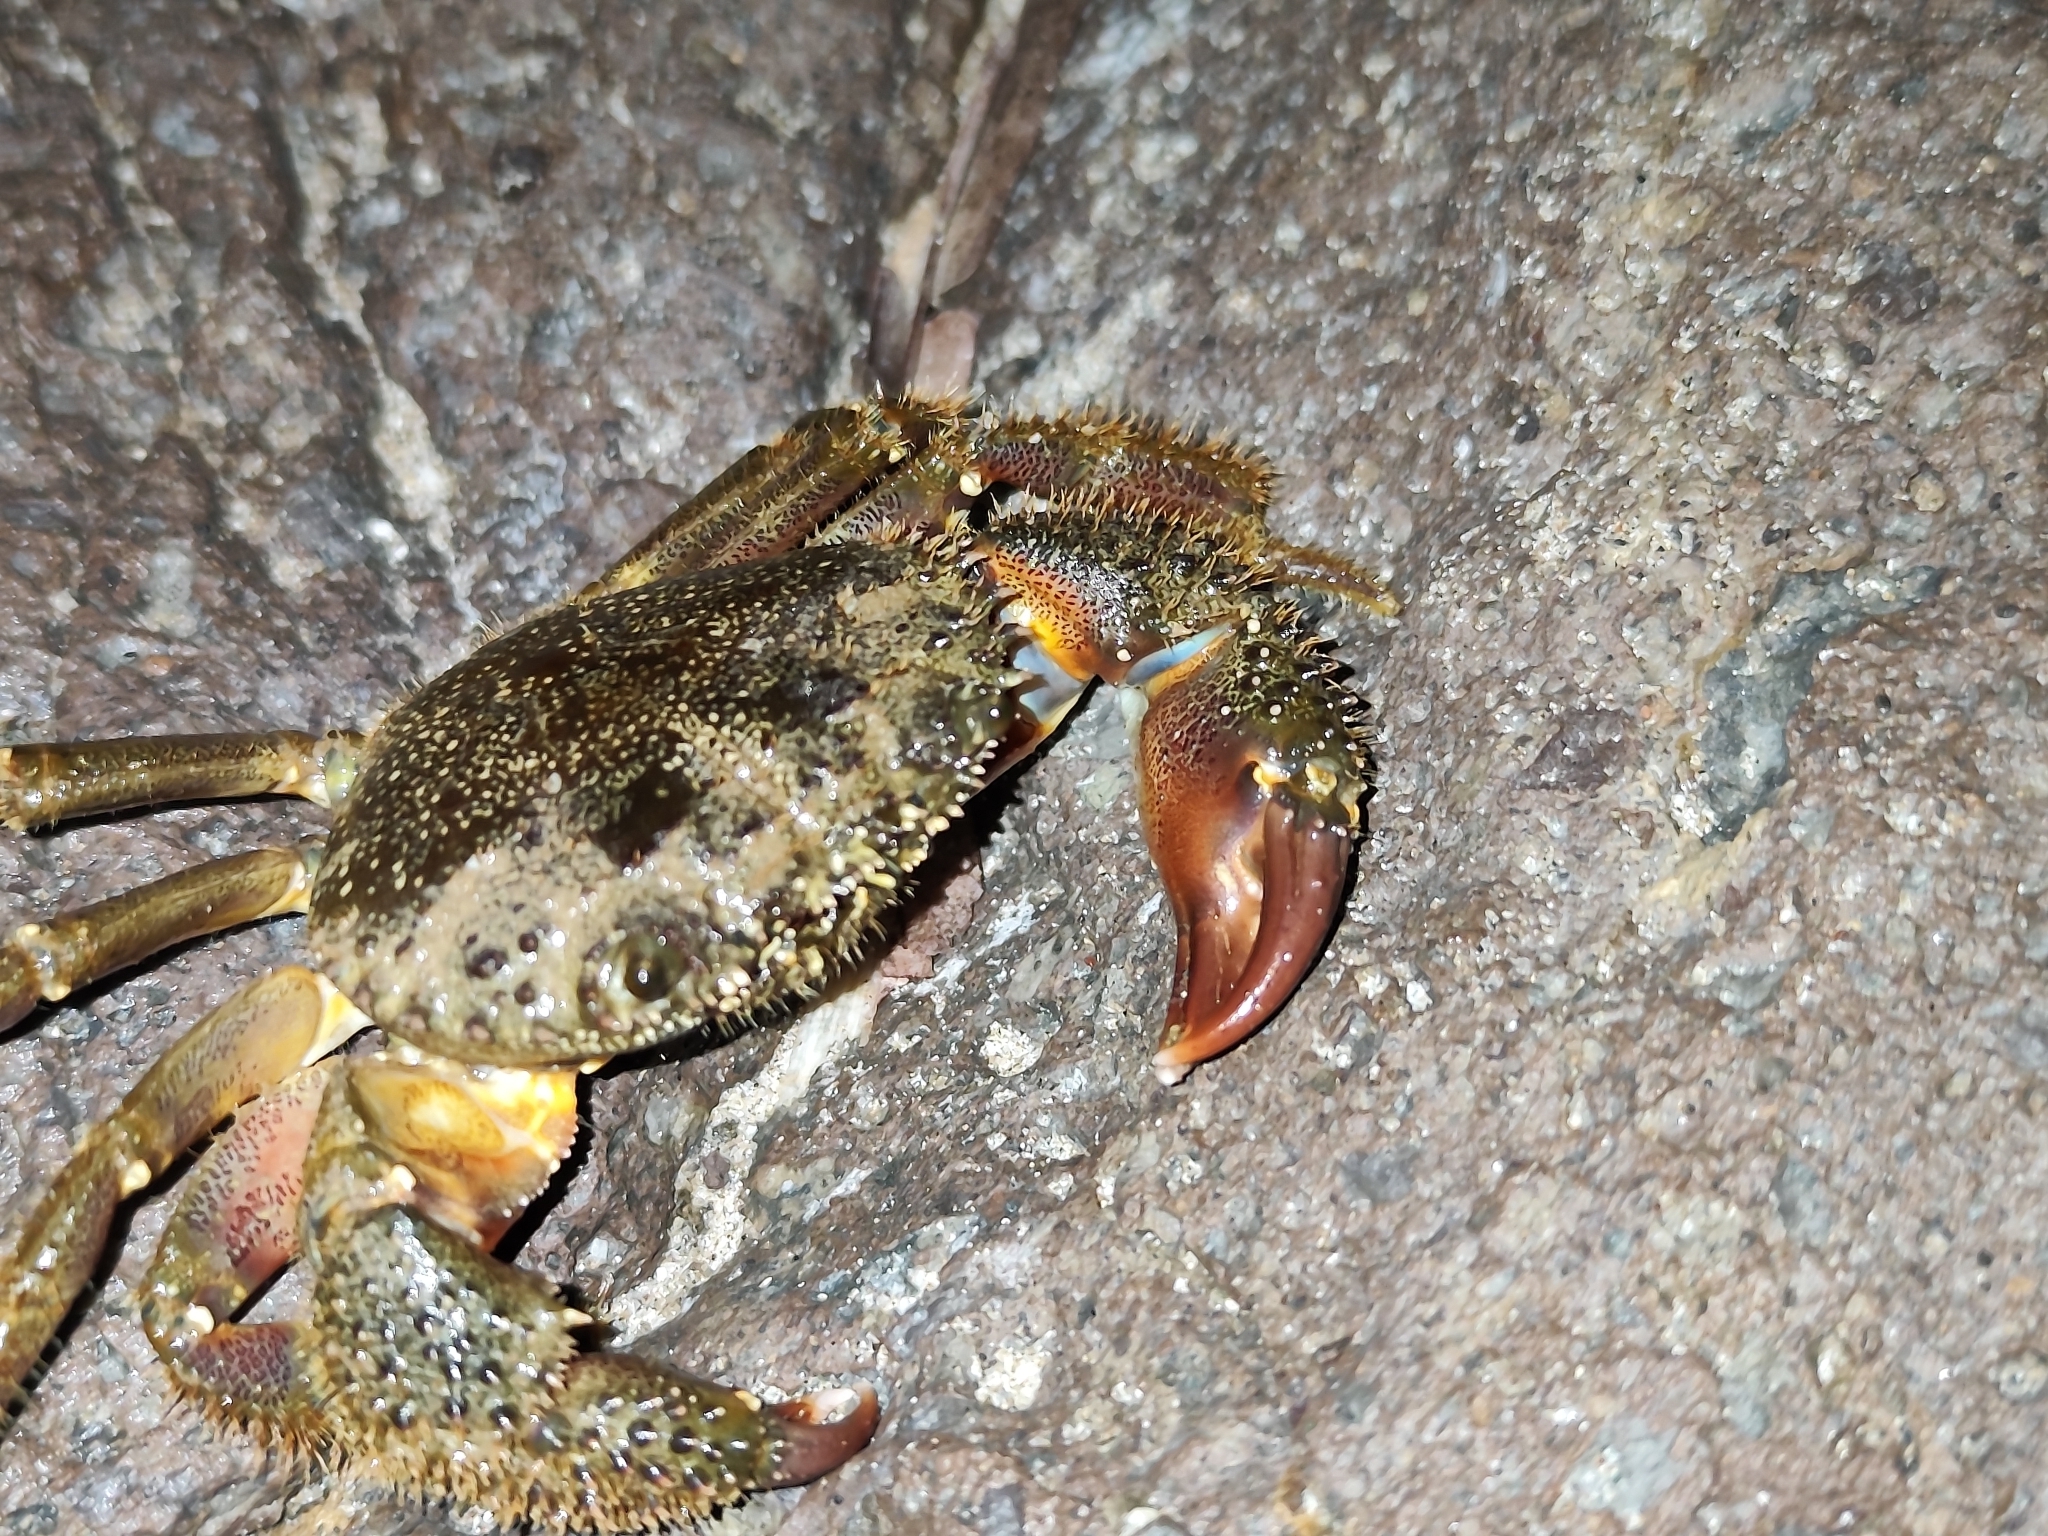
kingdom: Animalia
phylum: Arthropoda
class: Malacostraca
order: Decapoda
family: Eriphiidae
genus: Eriphia
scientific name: Eriphia verrucosa
